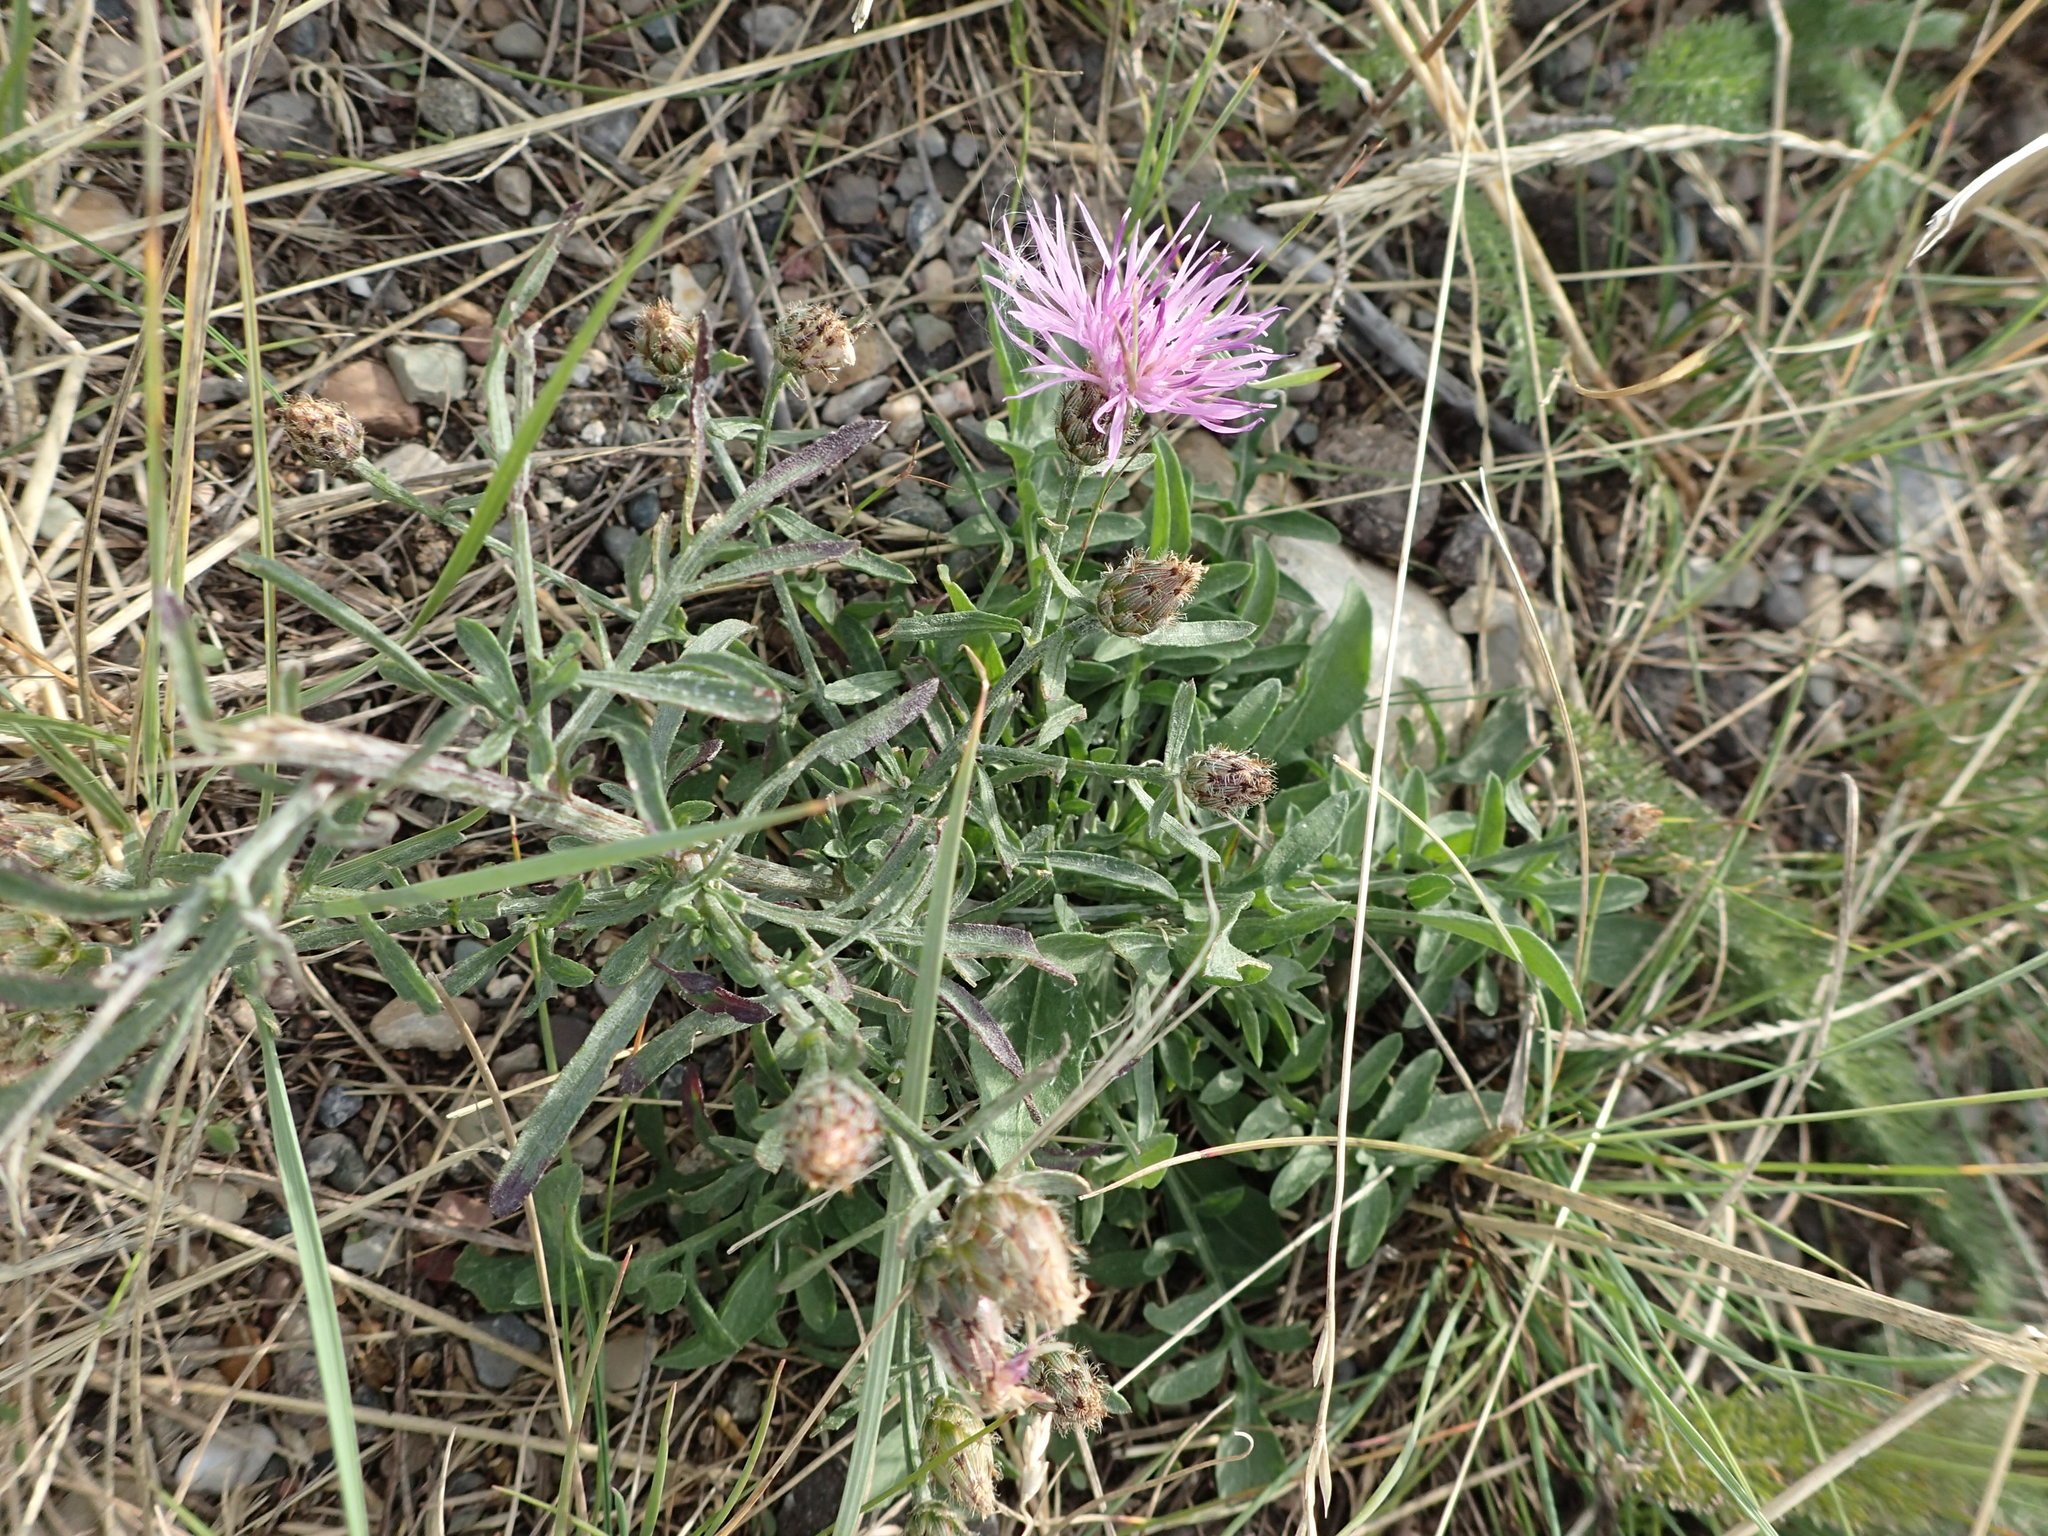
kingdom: Plantae
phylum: Tracheophyta
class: Magnoliopsida
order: Asterales
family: Asteraceae
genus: Centaurea
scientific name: Centaurea stoebe
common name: Spotted knapweed
